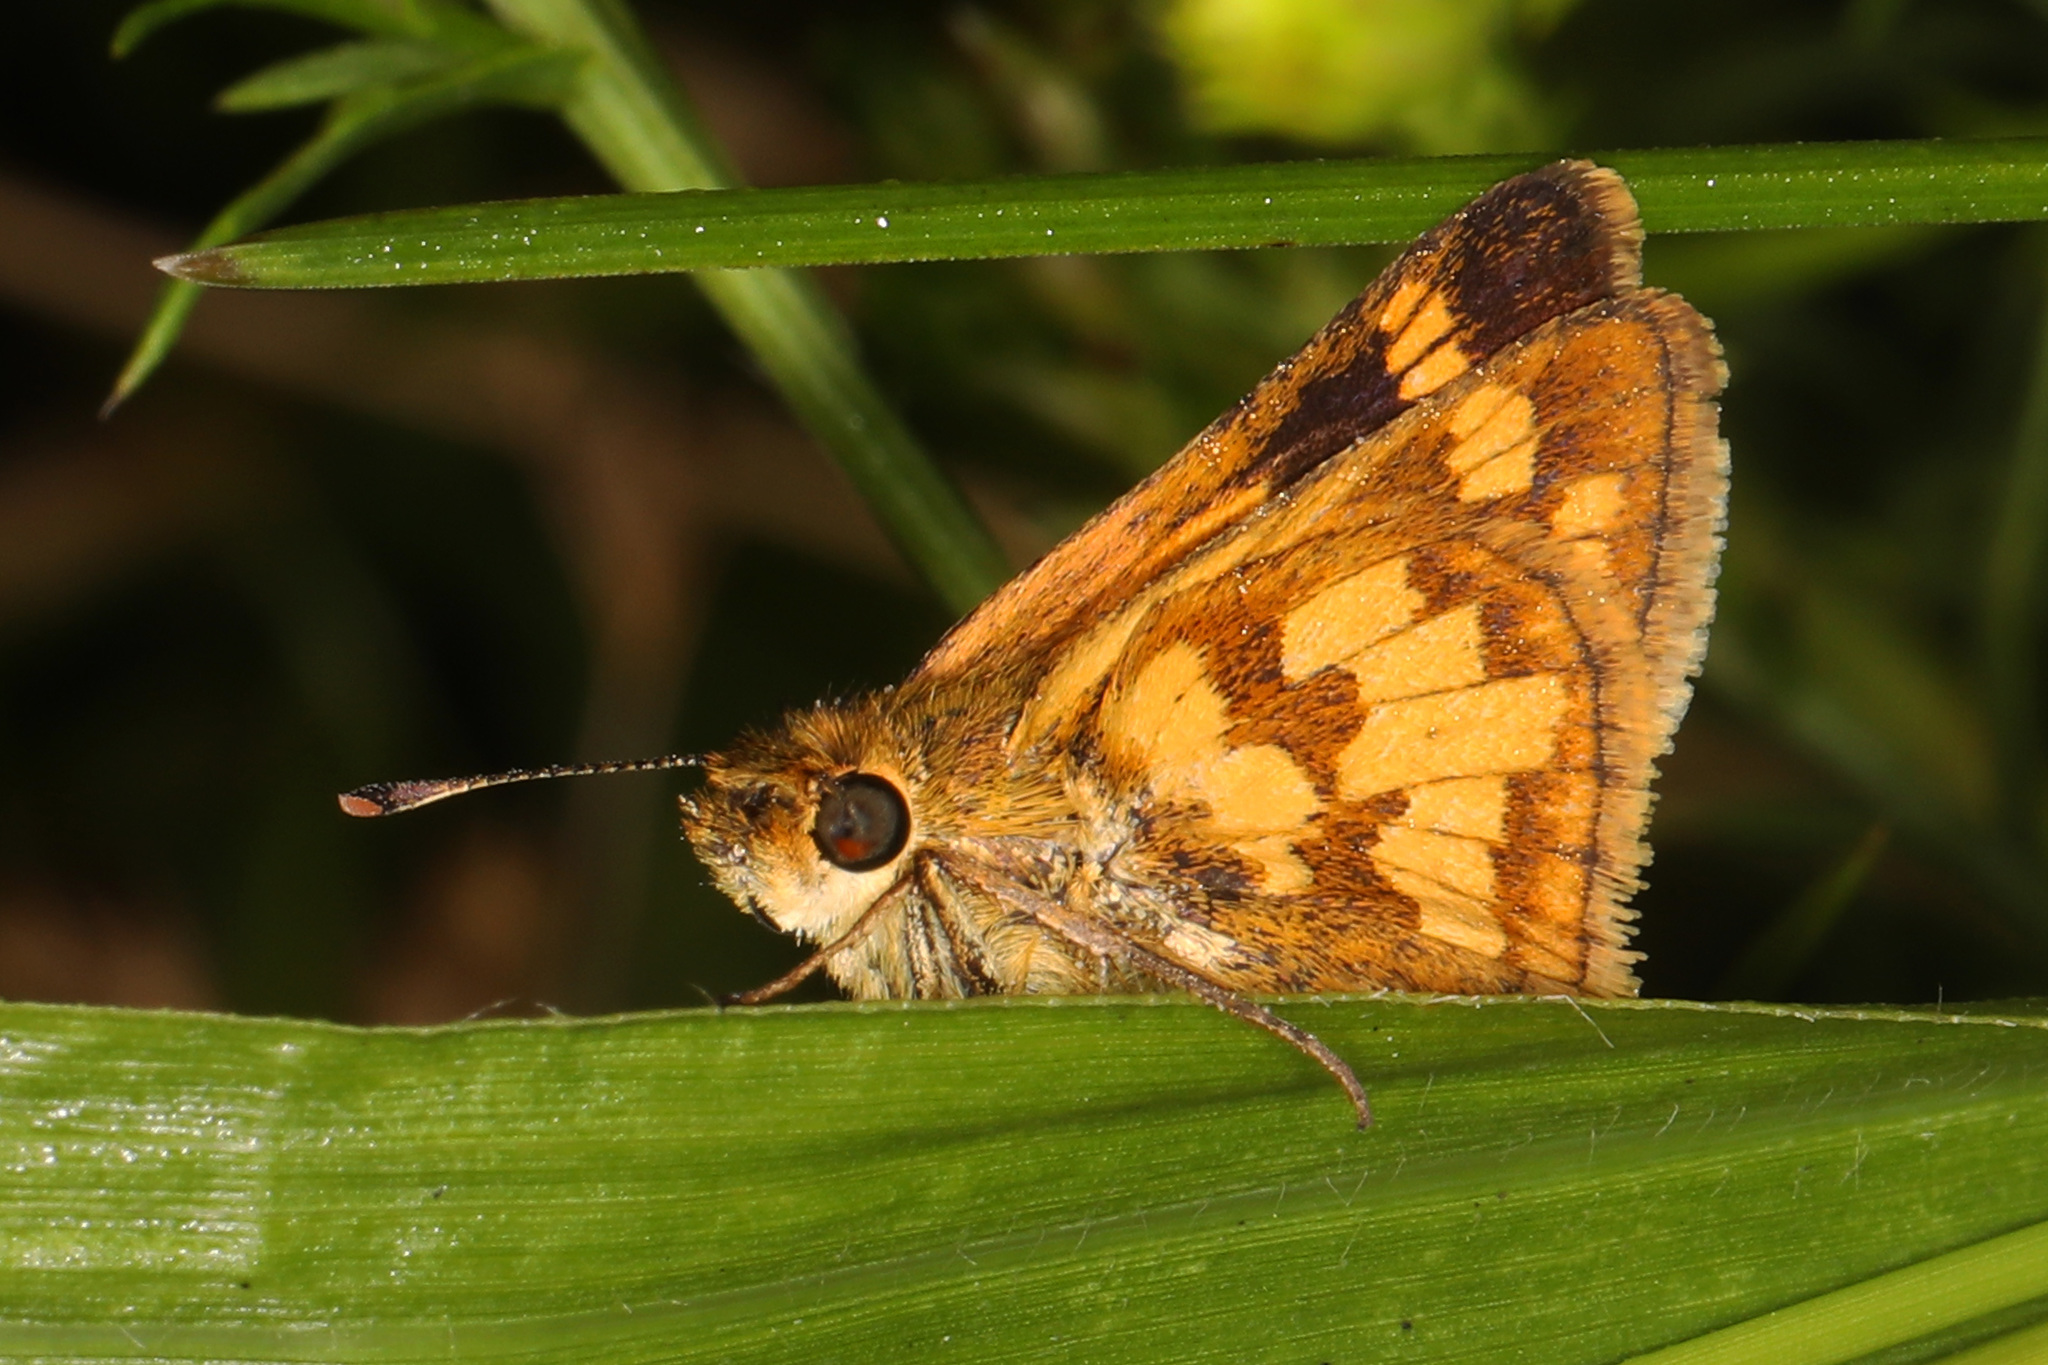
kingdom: Animalia
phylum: Arthropoda
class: Insecta
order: Lepidoptera
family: Hesperiidae
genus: Polites
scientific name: Polites coras
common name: Peck's skipper
